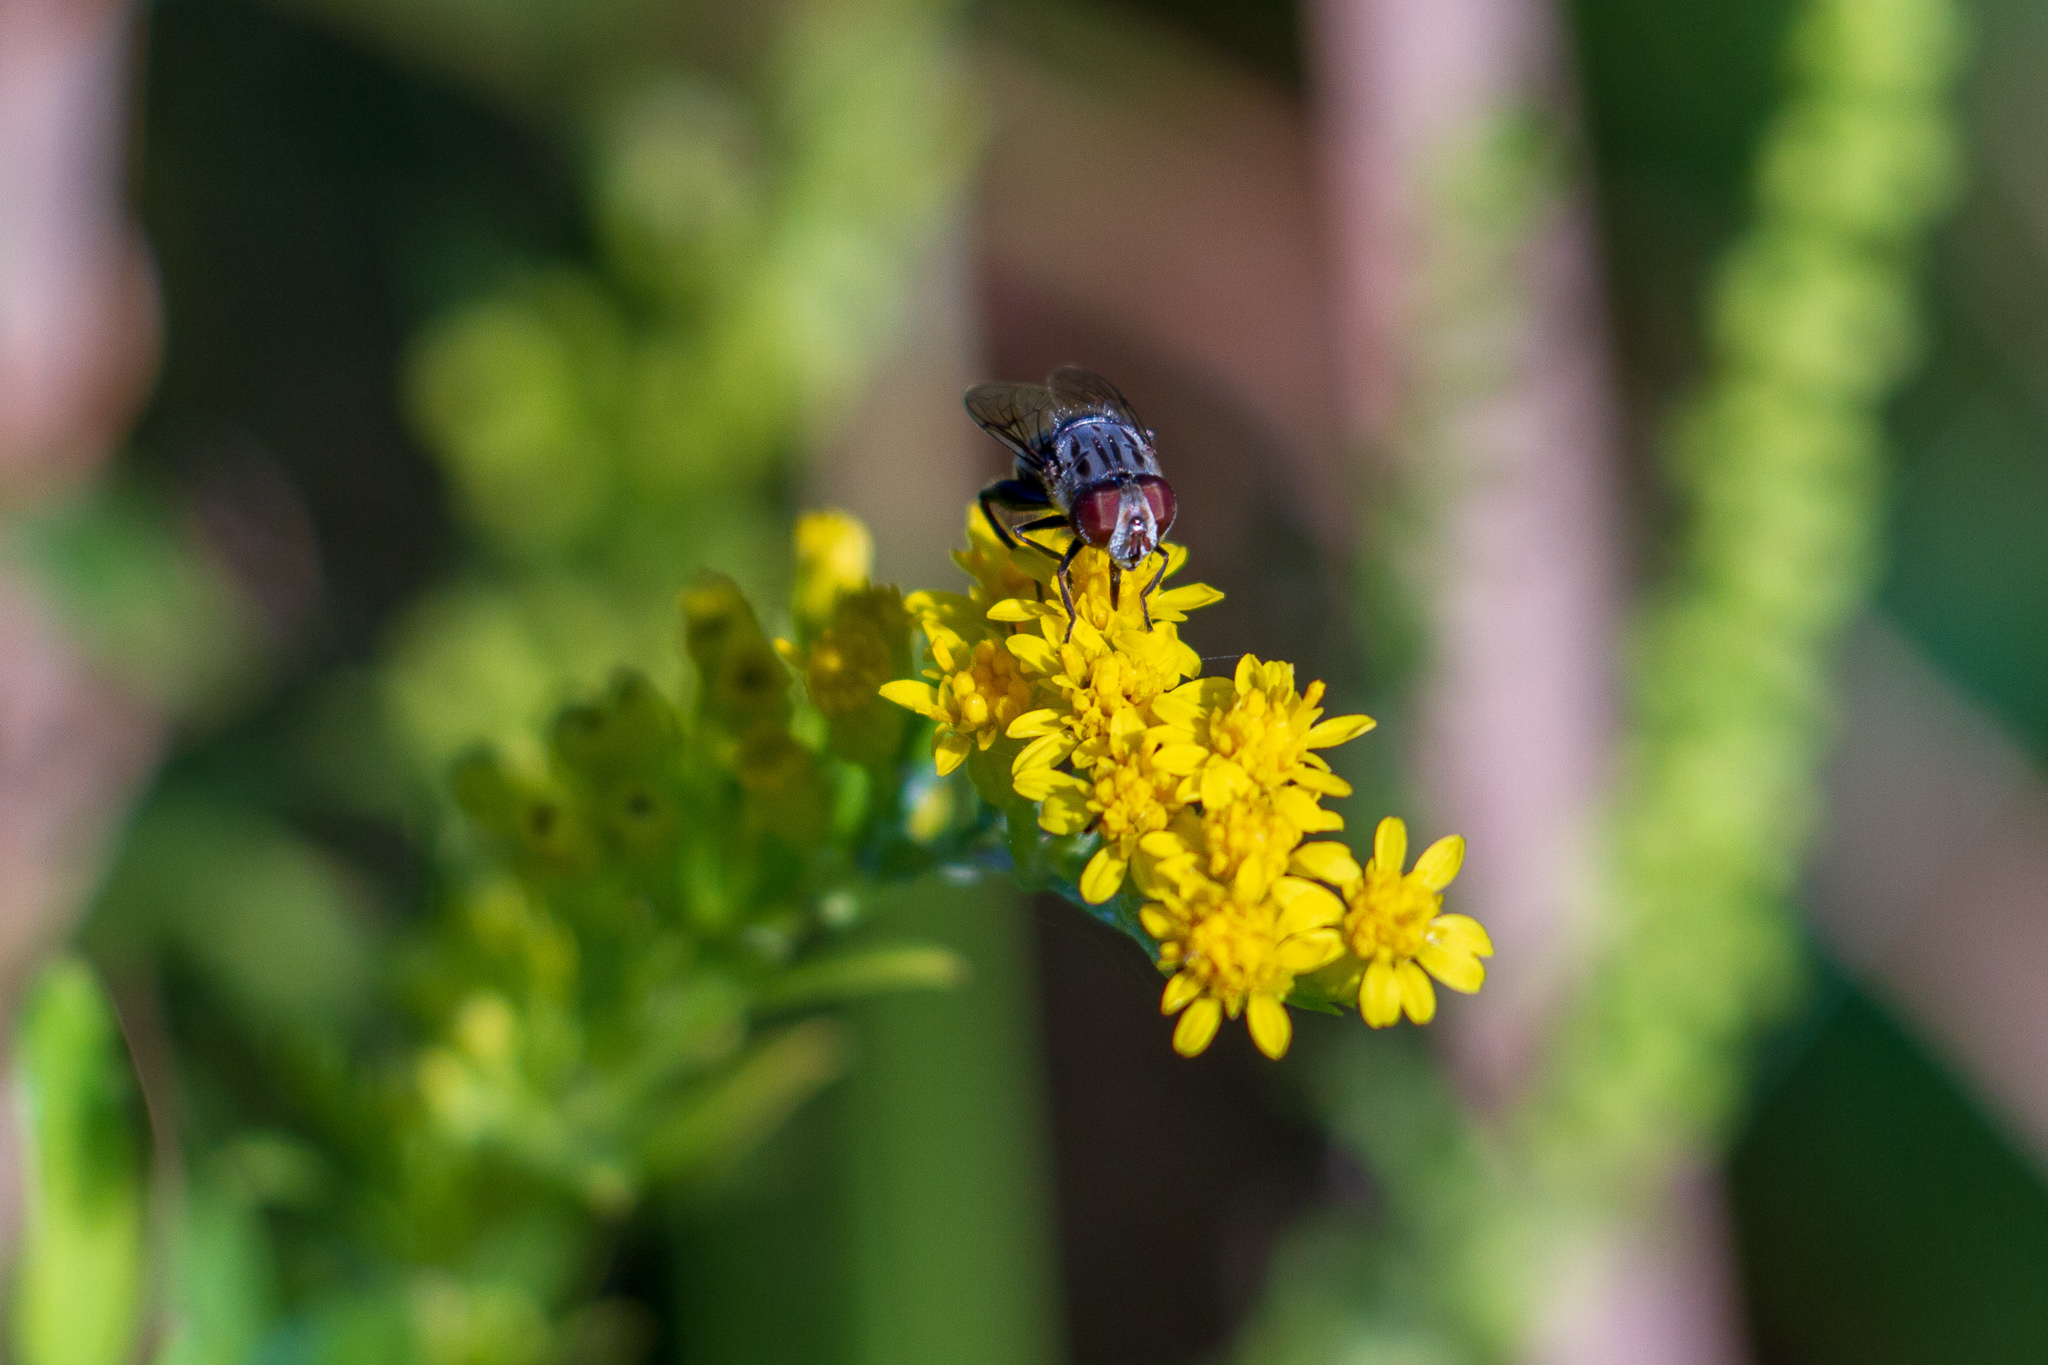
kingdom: Animalia
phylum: Arthropoda
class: Insecta
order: Diptera
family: Syrphidae
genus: Palpada
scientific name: Palpada furcata
